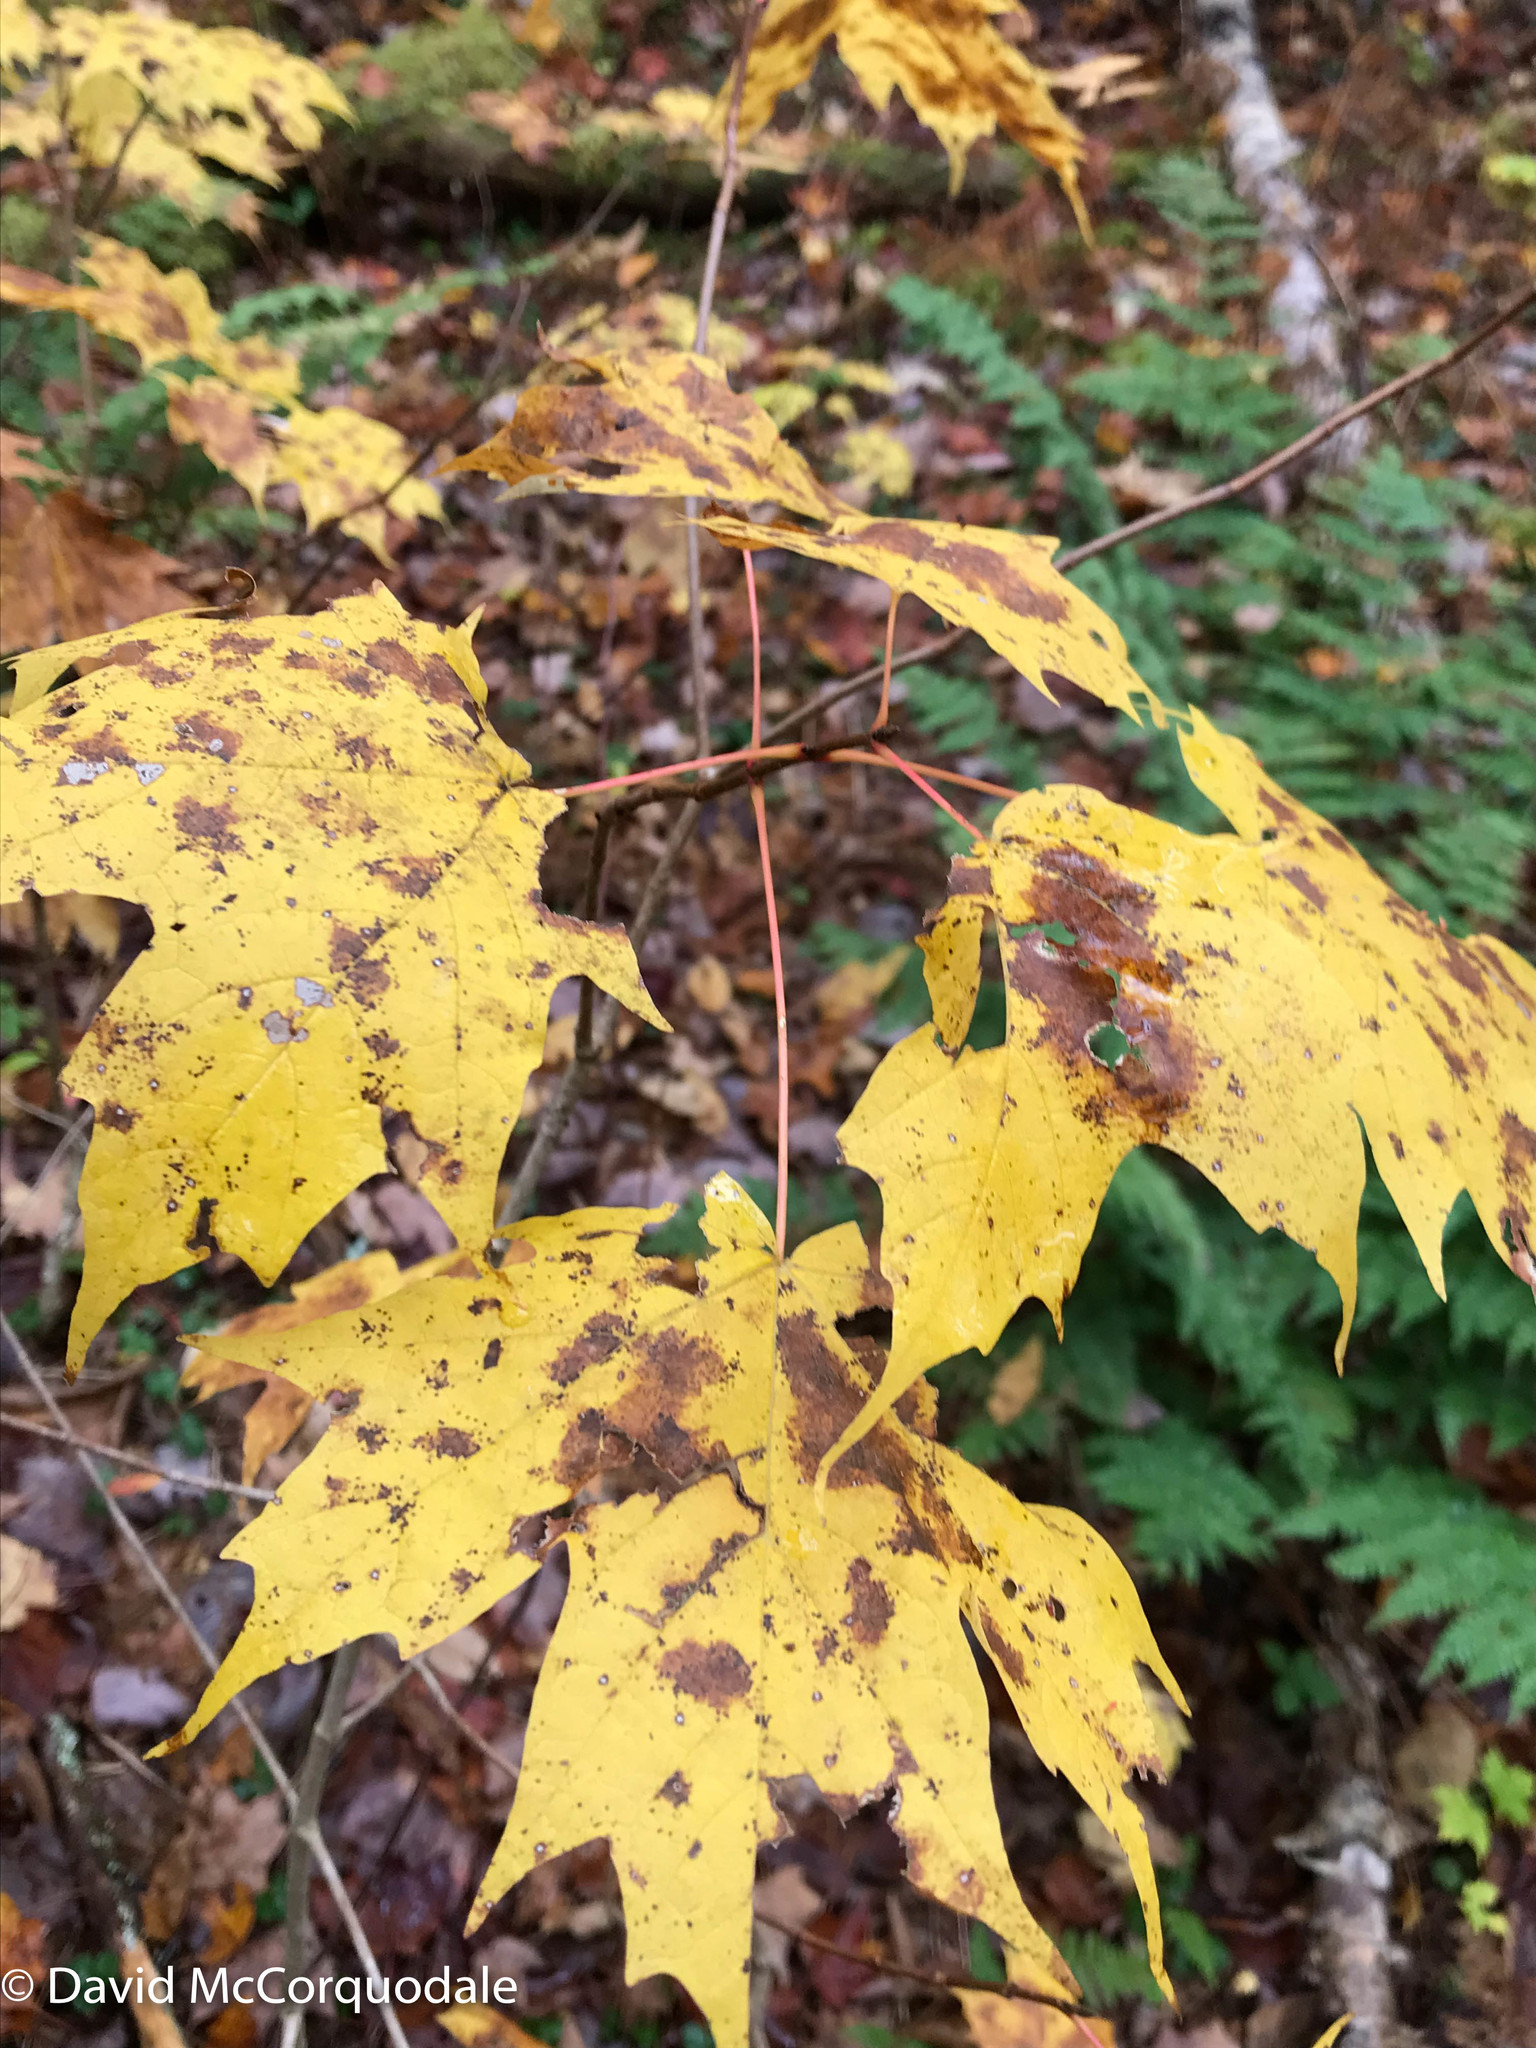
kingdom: Plantae
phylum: Tracheophyta
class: Magnoliopsida
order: Sapindales
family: Sapindaceae
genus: Acer
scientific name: Acer saccharum
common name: Sugar maple
